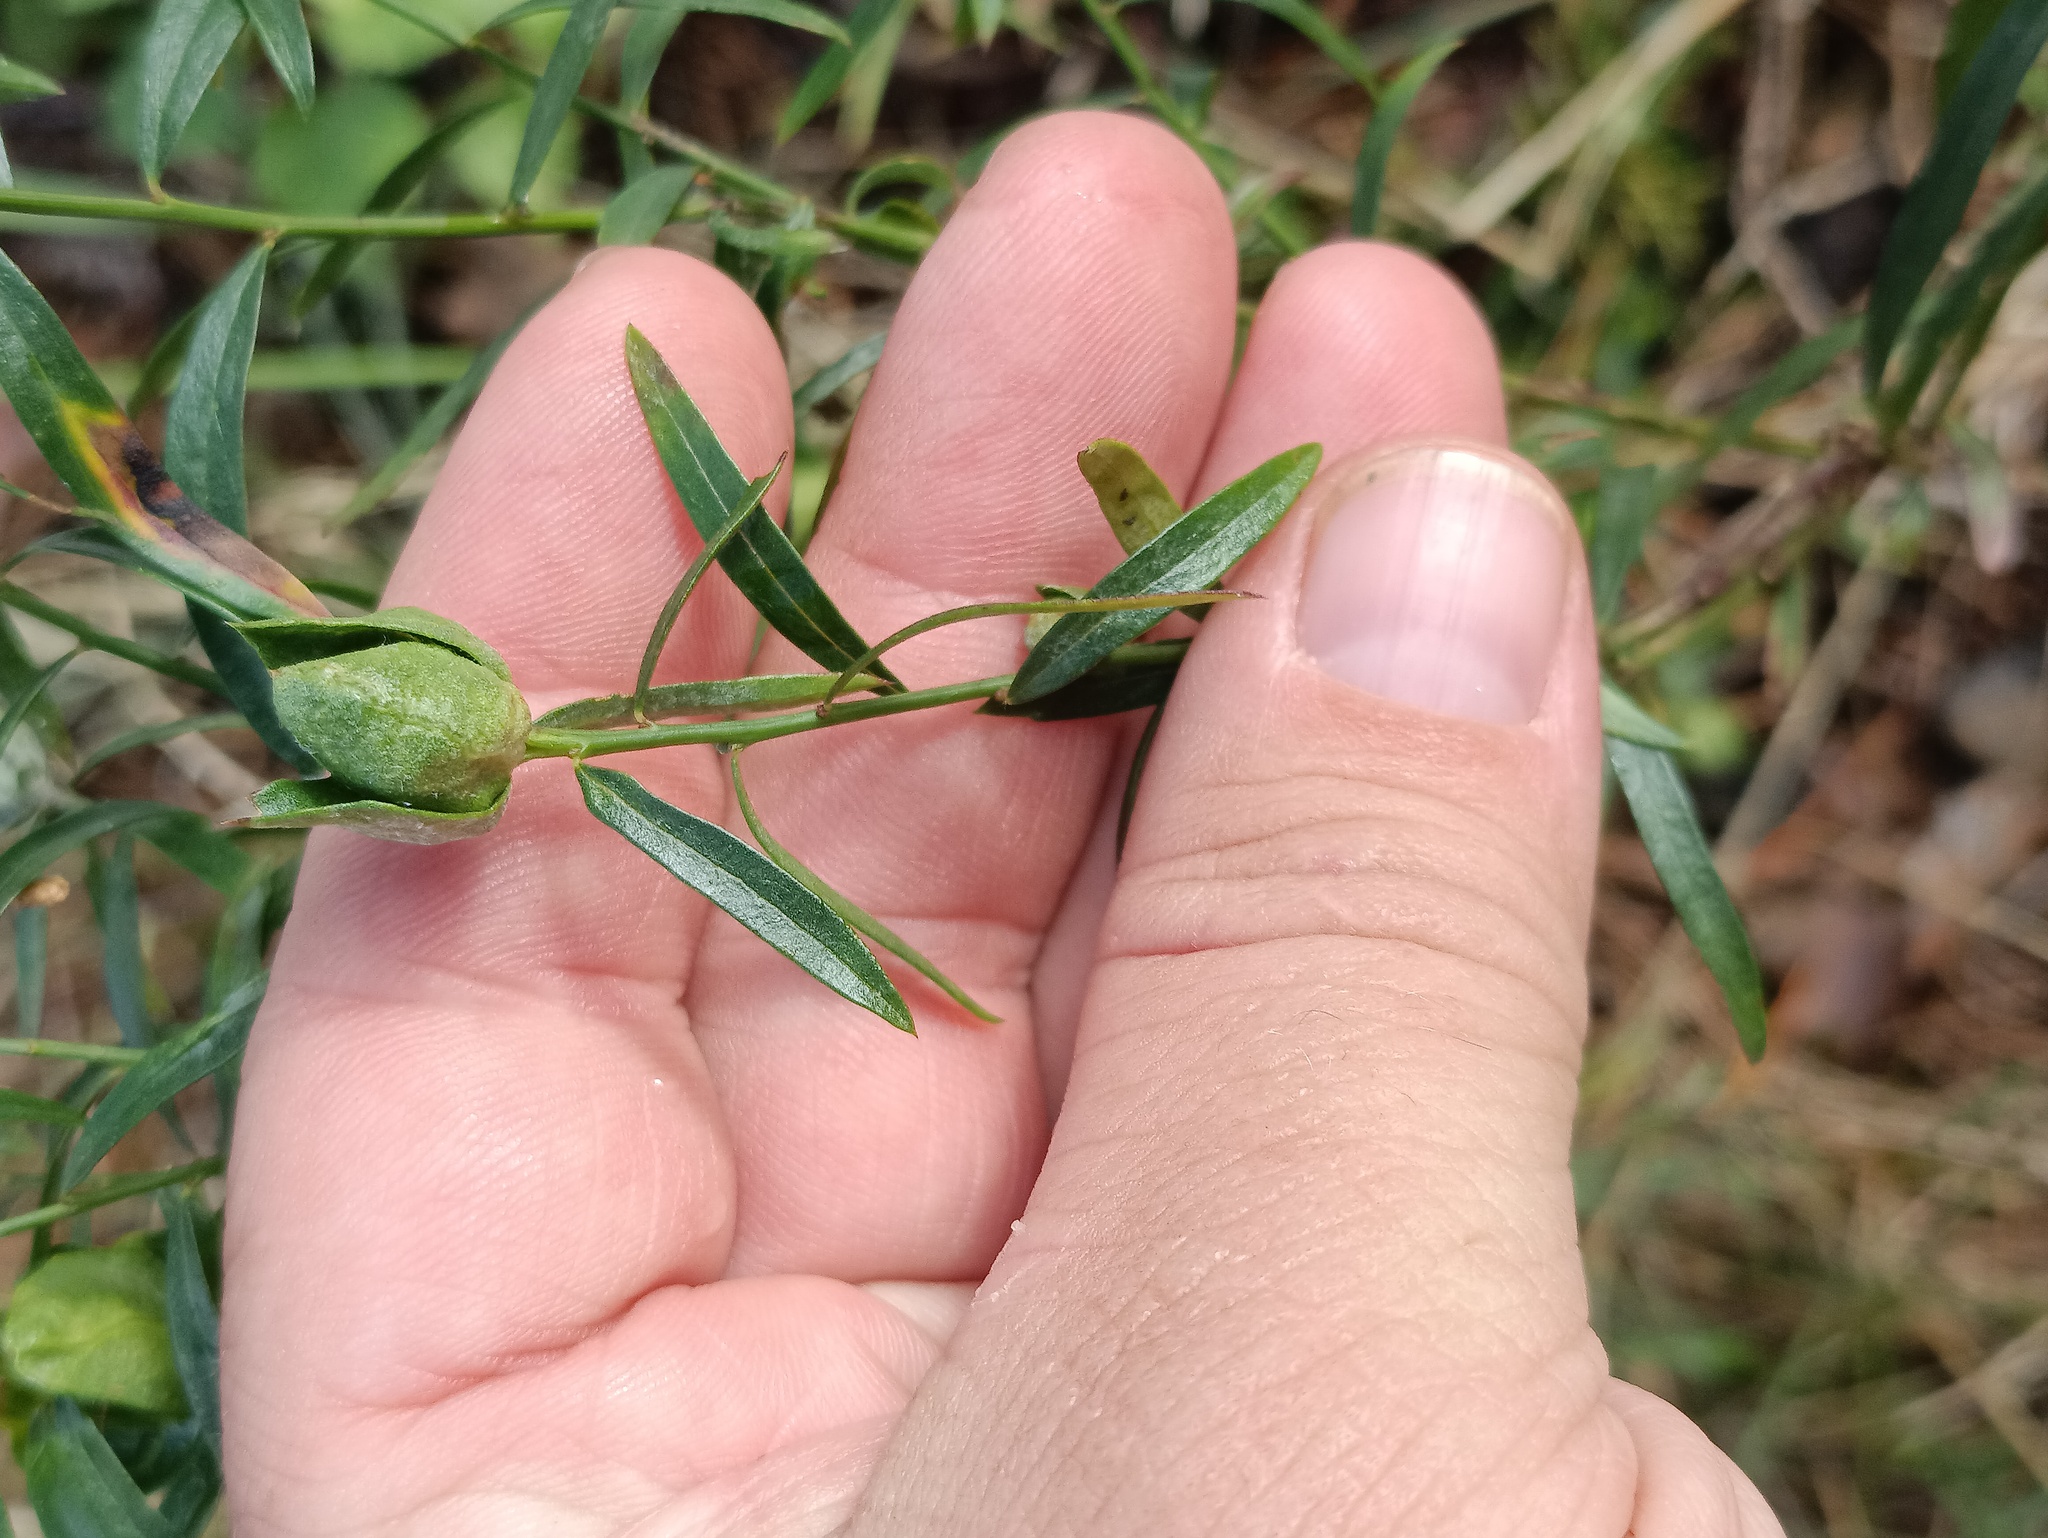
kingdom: Plantae
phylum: Tracheophyta
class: Magnoliopsida
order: Fabales
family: Fabaceae
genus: Genista
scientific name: Genista tinctoria
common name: Dyer's greenweed
